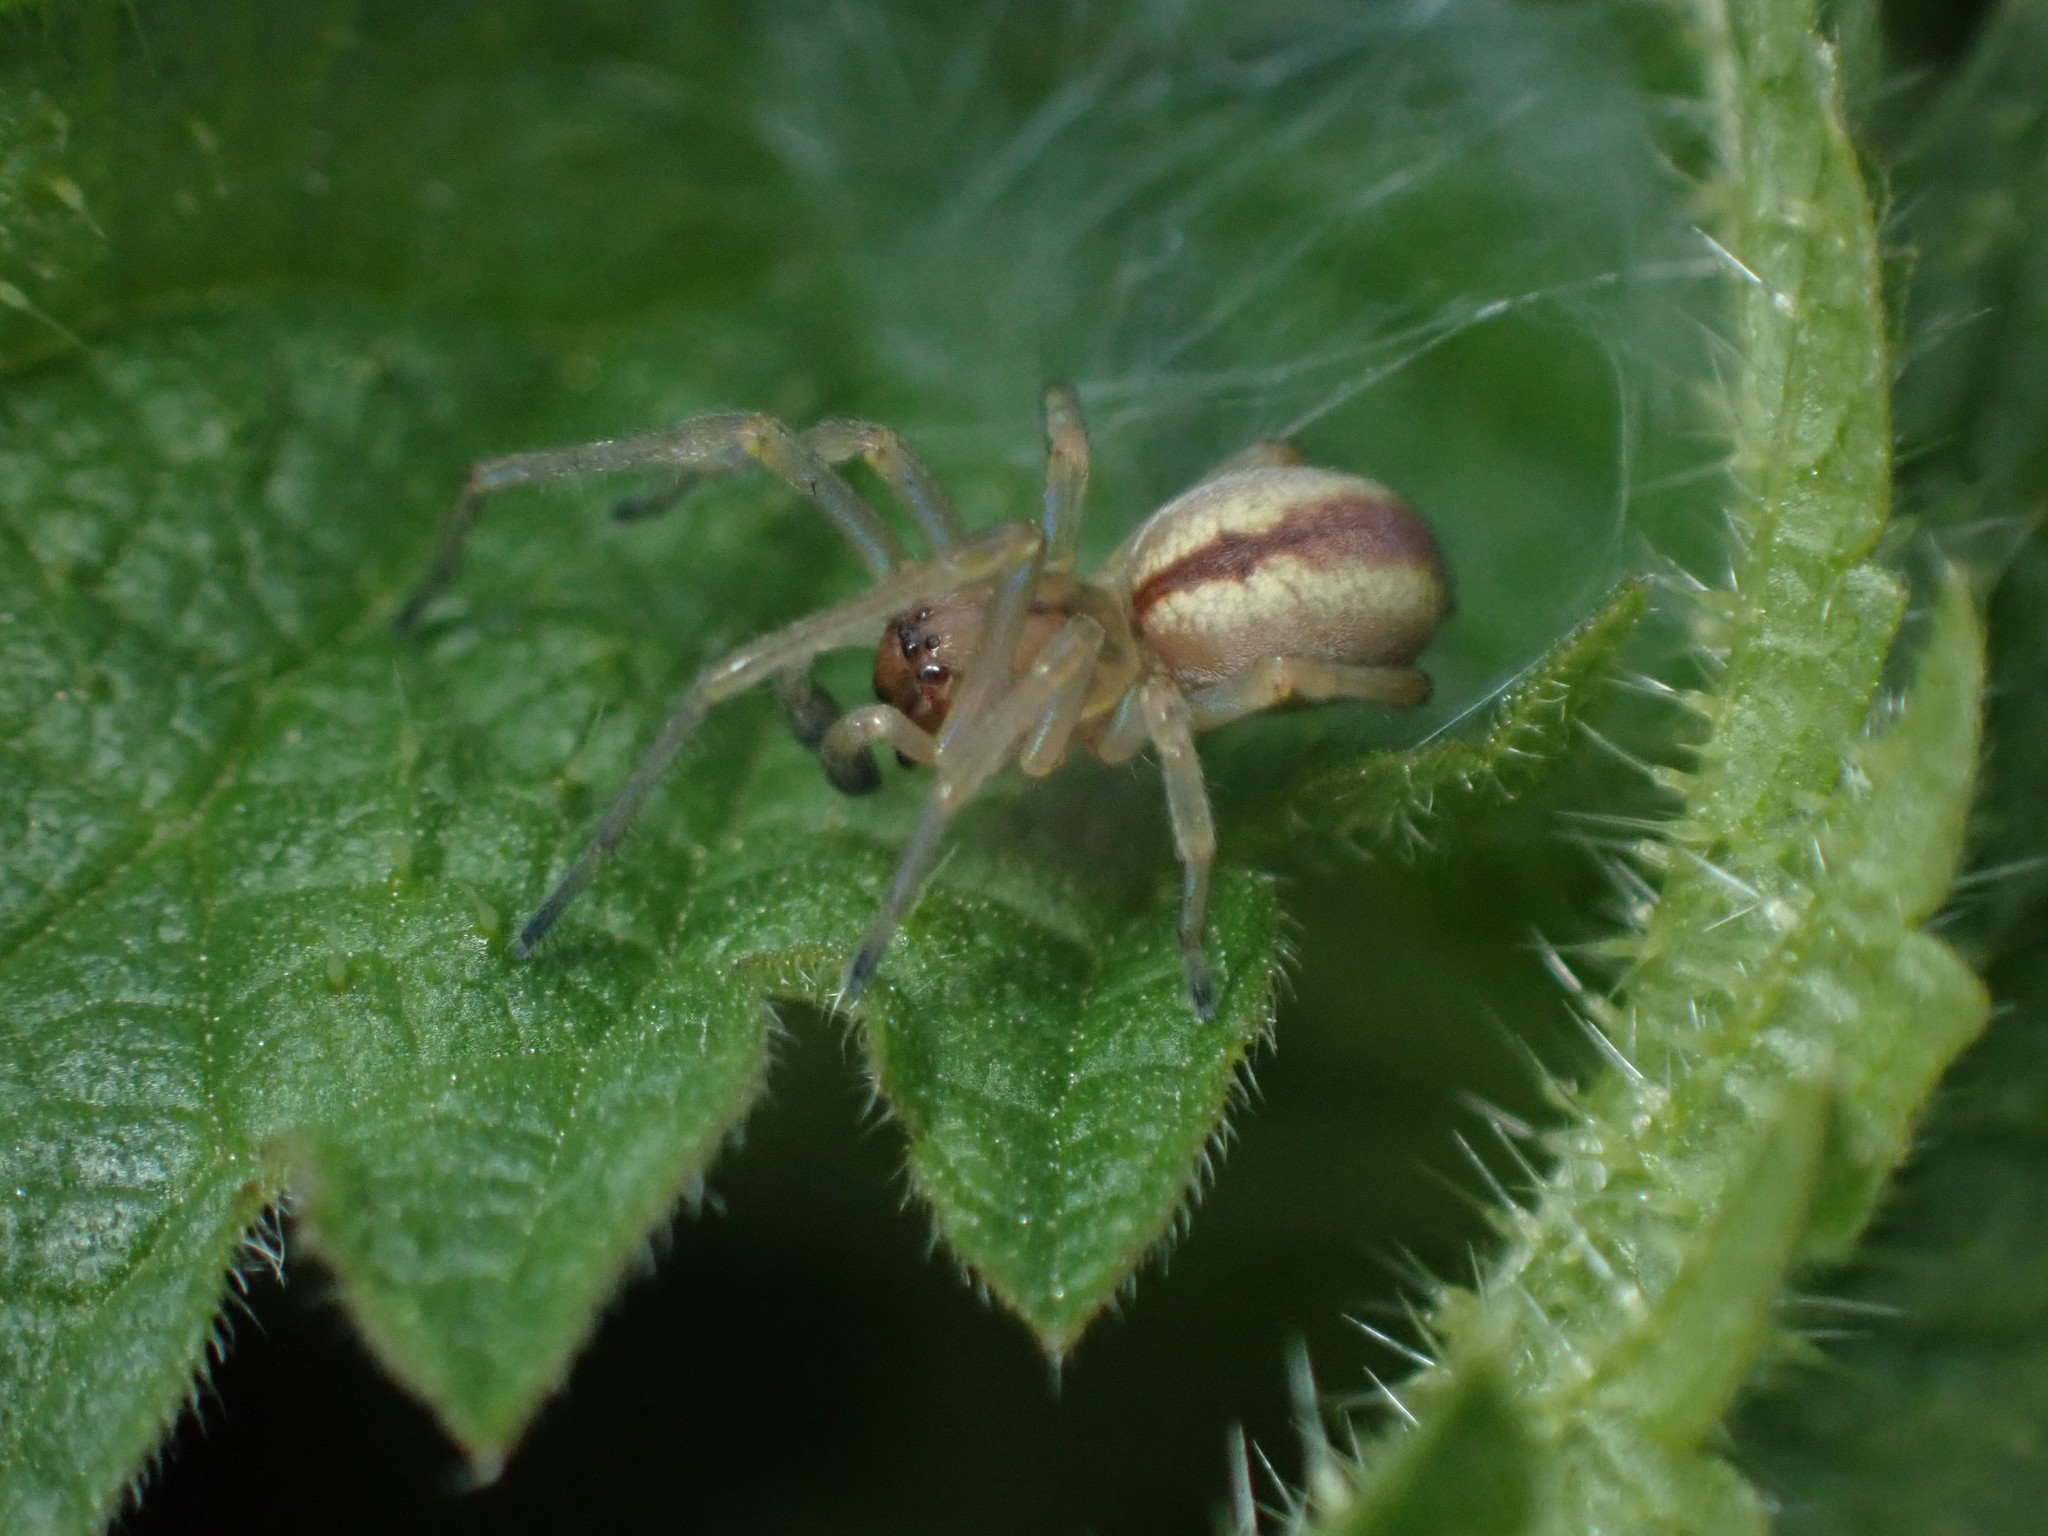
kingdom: Animalia
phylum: Arthropoda
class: Arachnida
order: Araneae
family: Cheiracanthiidae
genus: Cheiracanthium
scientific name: Cheiracanthium erraticum
